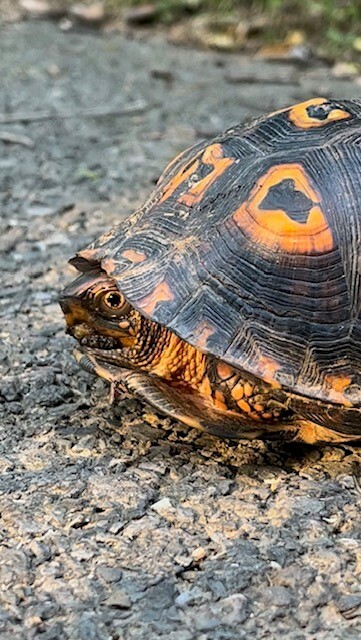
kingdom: Animalia
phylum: Chordata
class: Testudines
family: Emydidae
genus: Terrapene
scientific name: Terrapene carolina
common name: Common box turtle
